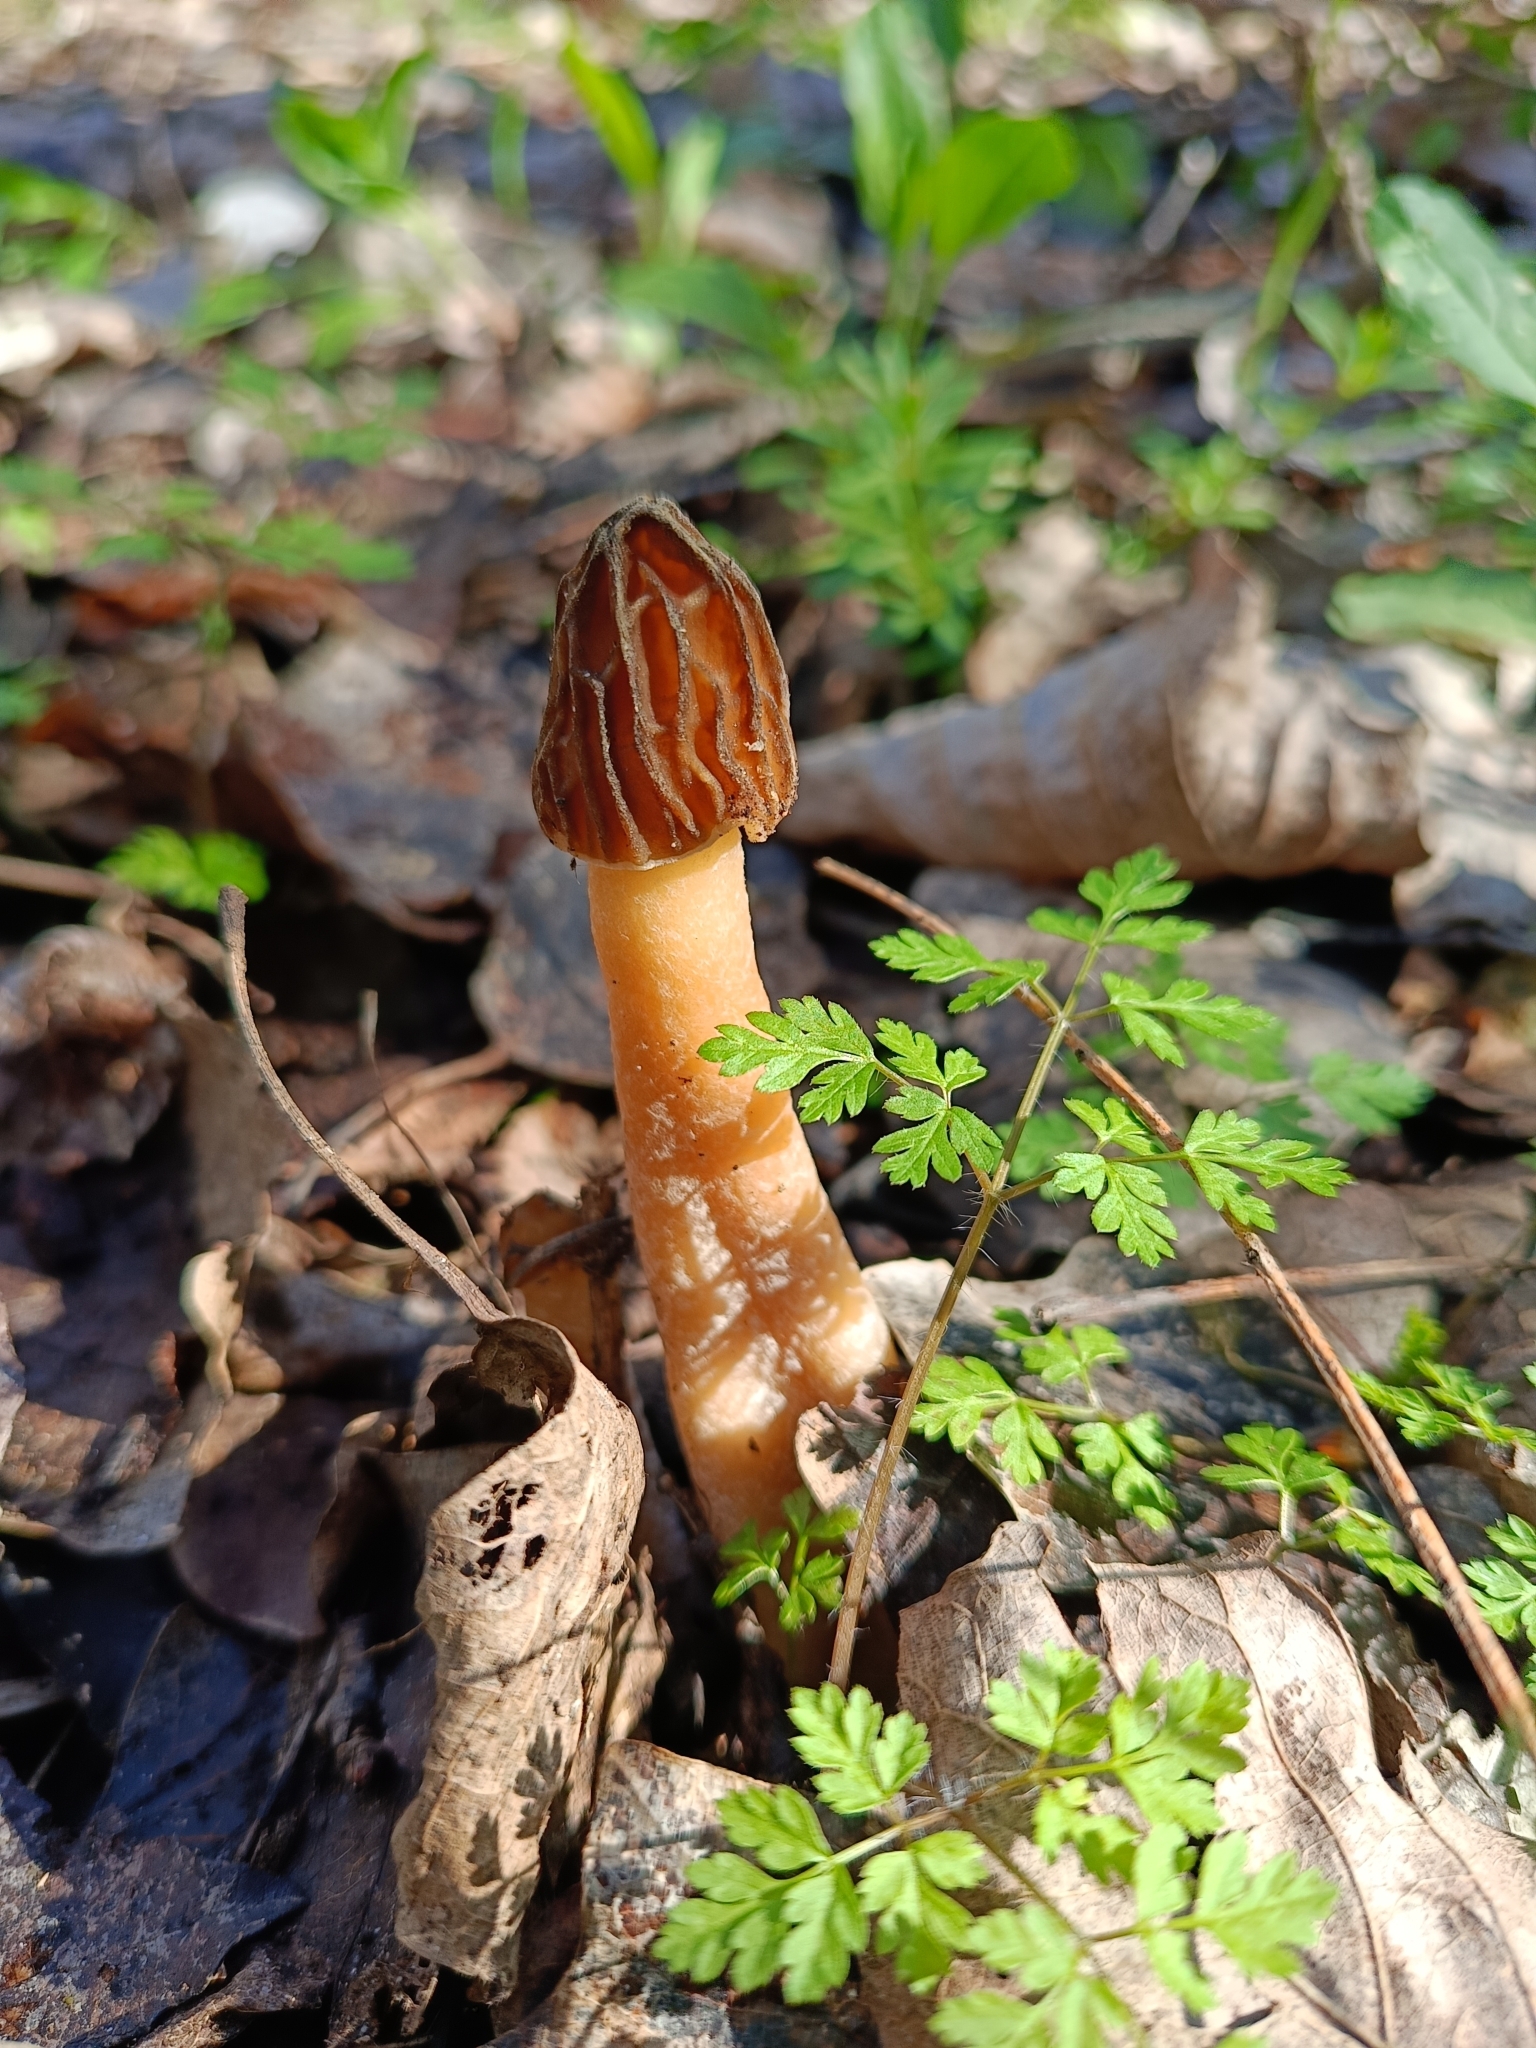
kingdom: Fungi
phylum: Ascomycota
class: Pezizomycetes
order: Pezizales
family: Morchellaceae
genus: Verpa
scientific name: Verpa bohemica
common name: Wrinkled thimble morel
